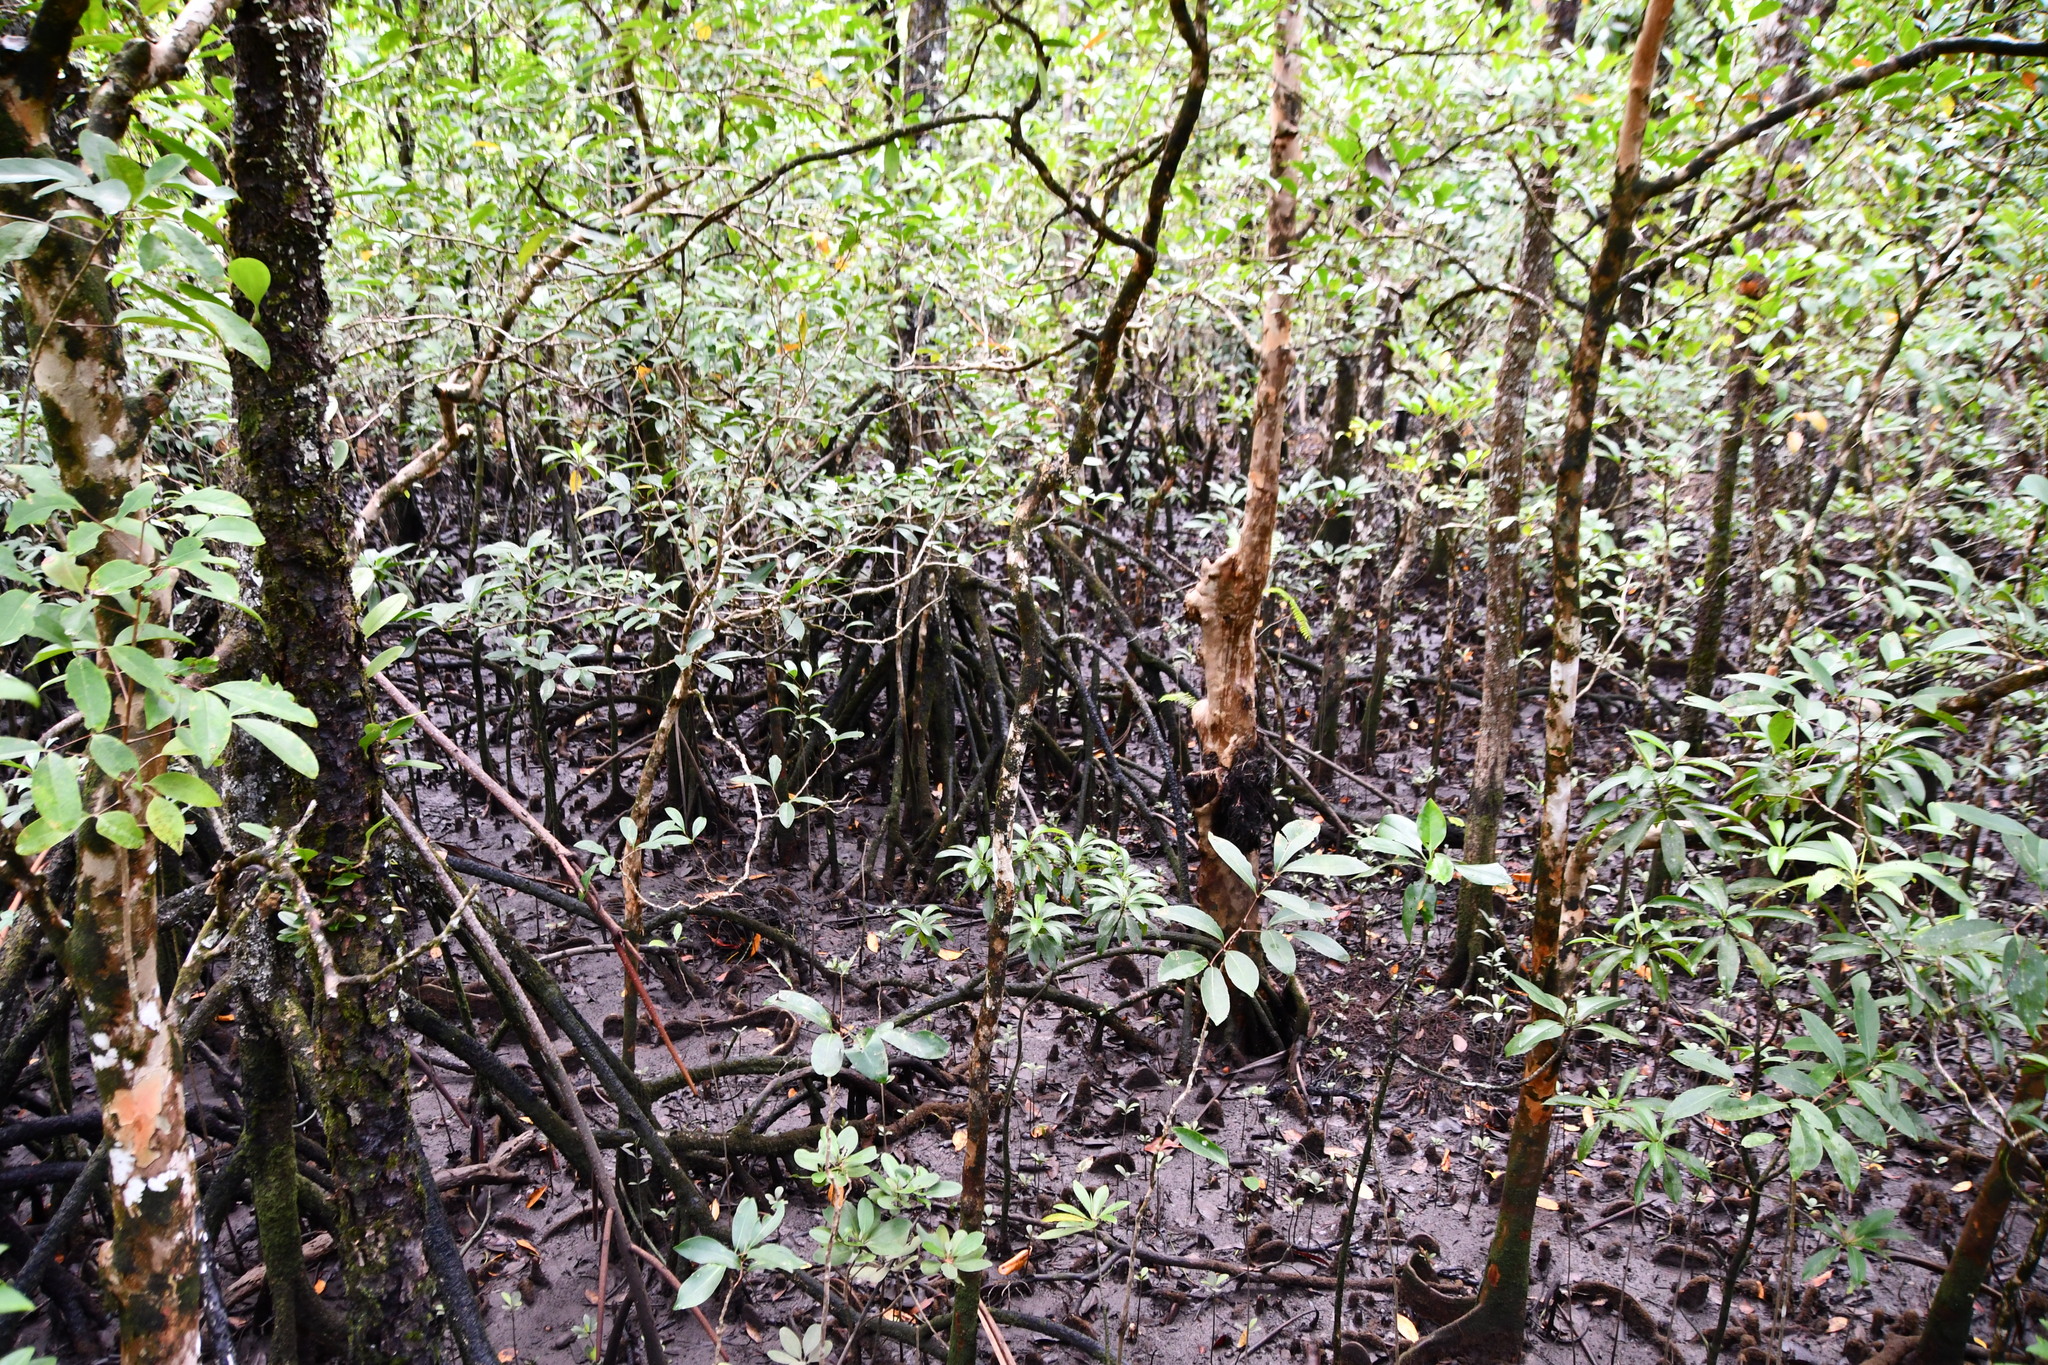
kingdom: Plantae
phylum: Tracheophyta
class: Magnoliopsida
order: Sapindales
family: Meliaceae
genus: Xylocarpus
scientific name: Xylocarpus granatum
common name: Apple mangrove
